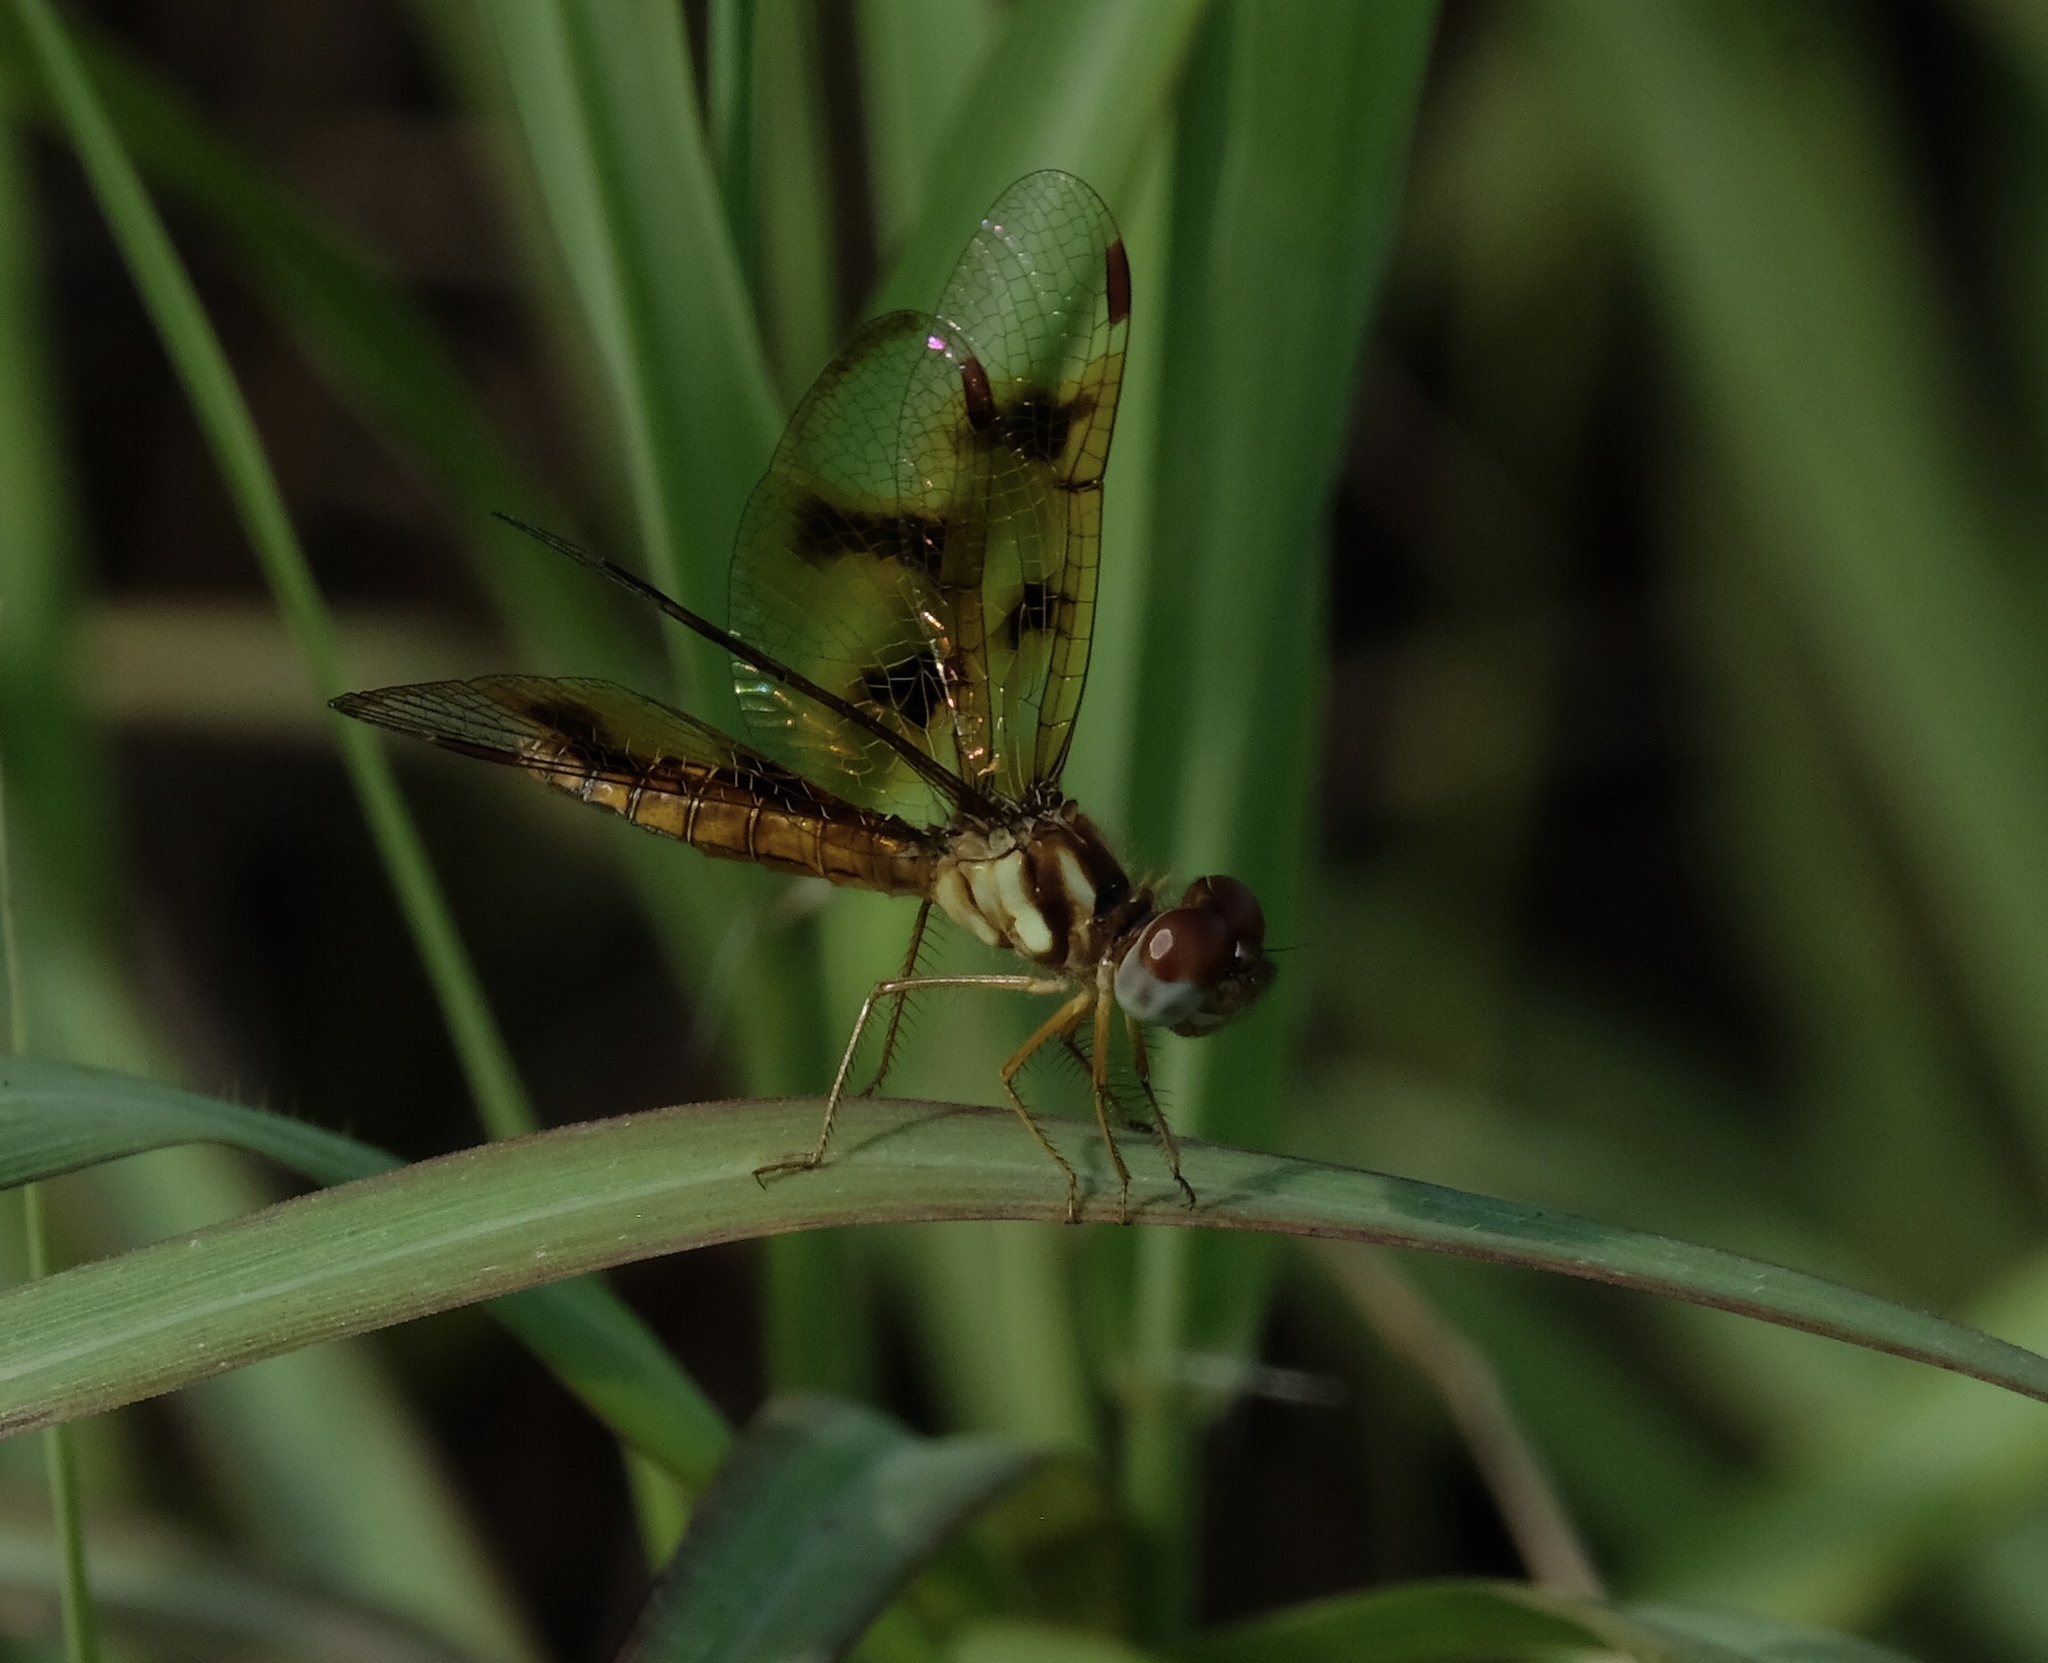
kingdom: Animalia
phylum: Arthropoda
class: Insecta
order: Odonata
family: Libellulidae
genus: Perithemis
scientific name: Perithemis tenera
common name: Eastern amberwing
